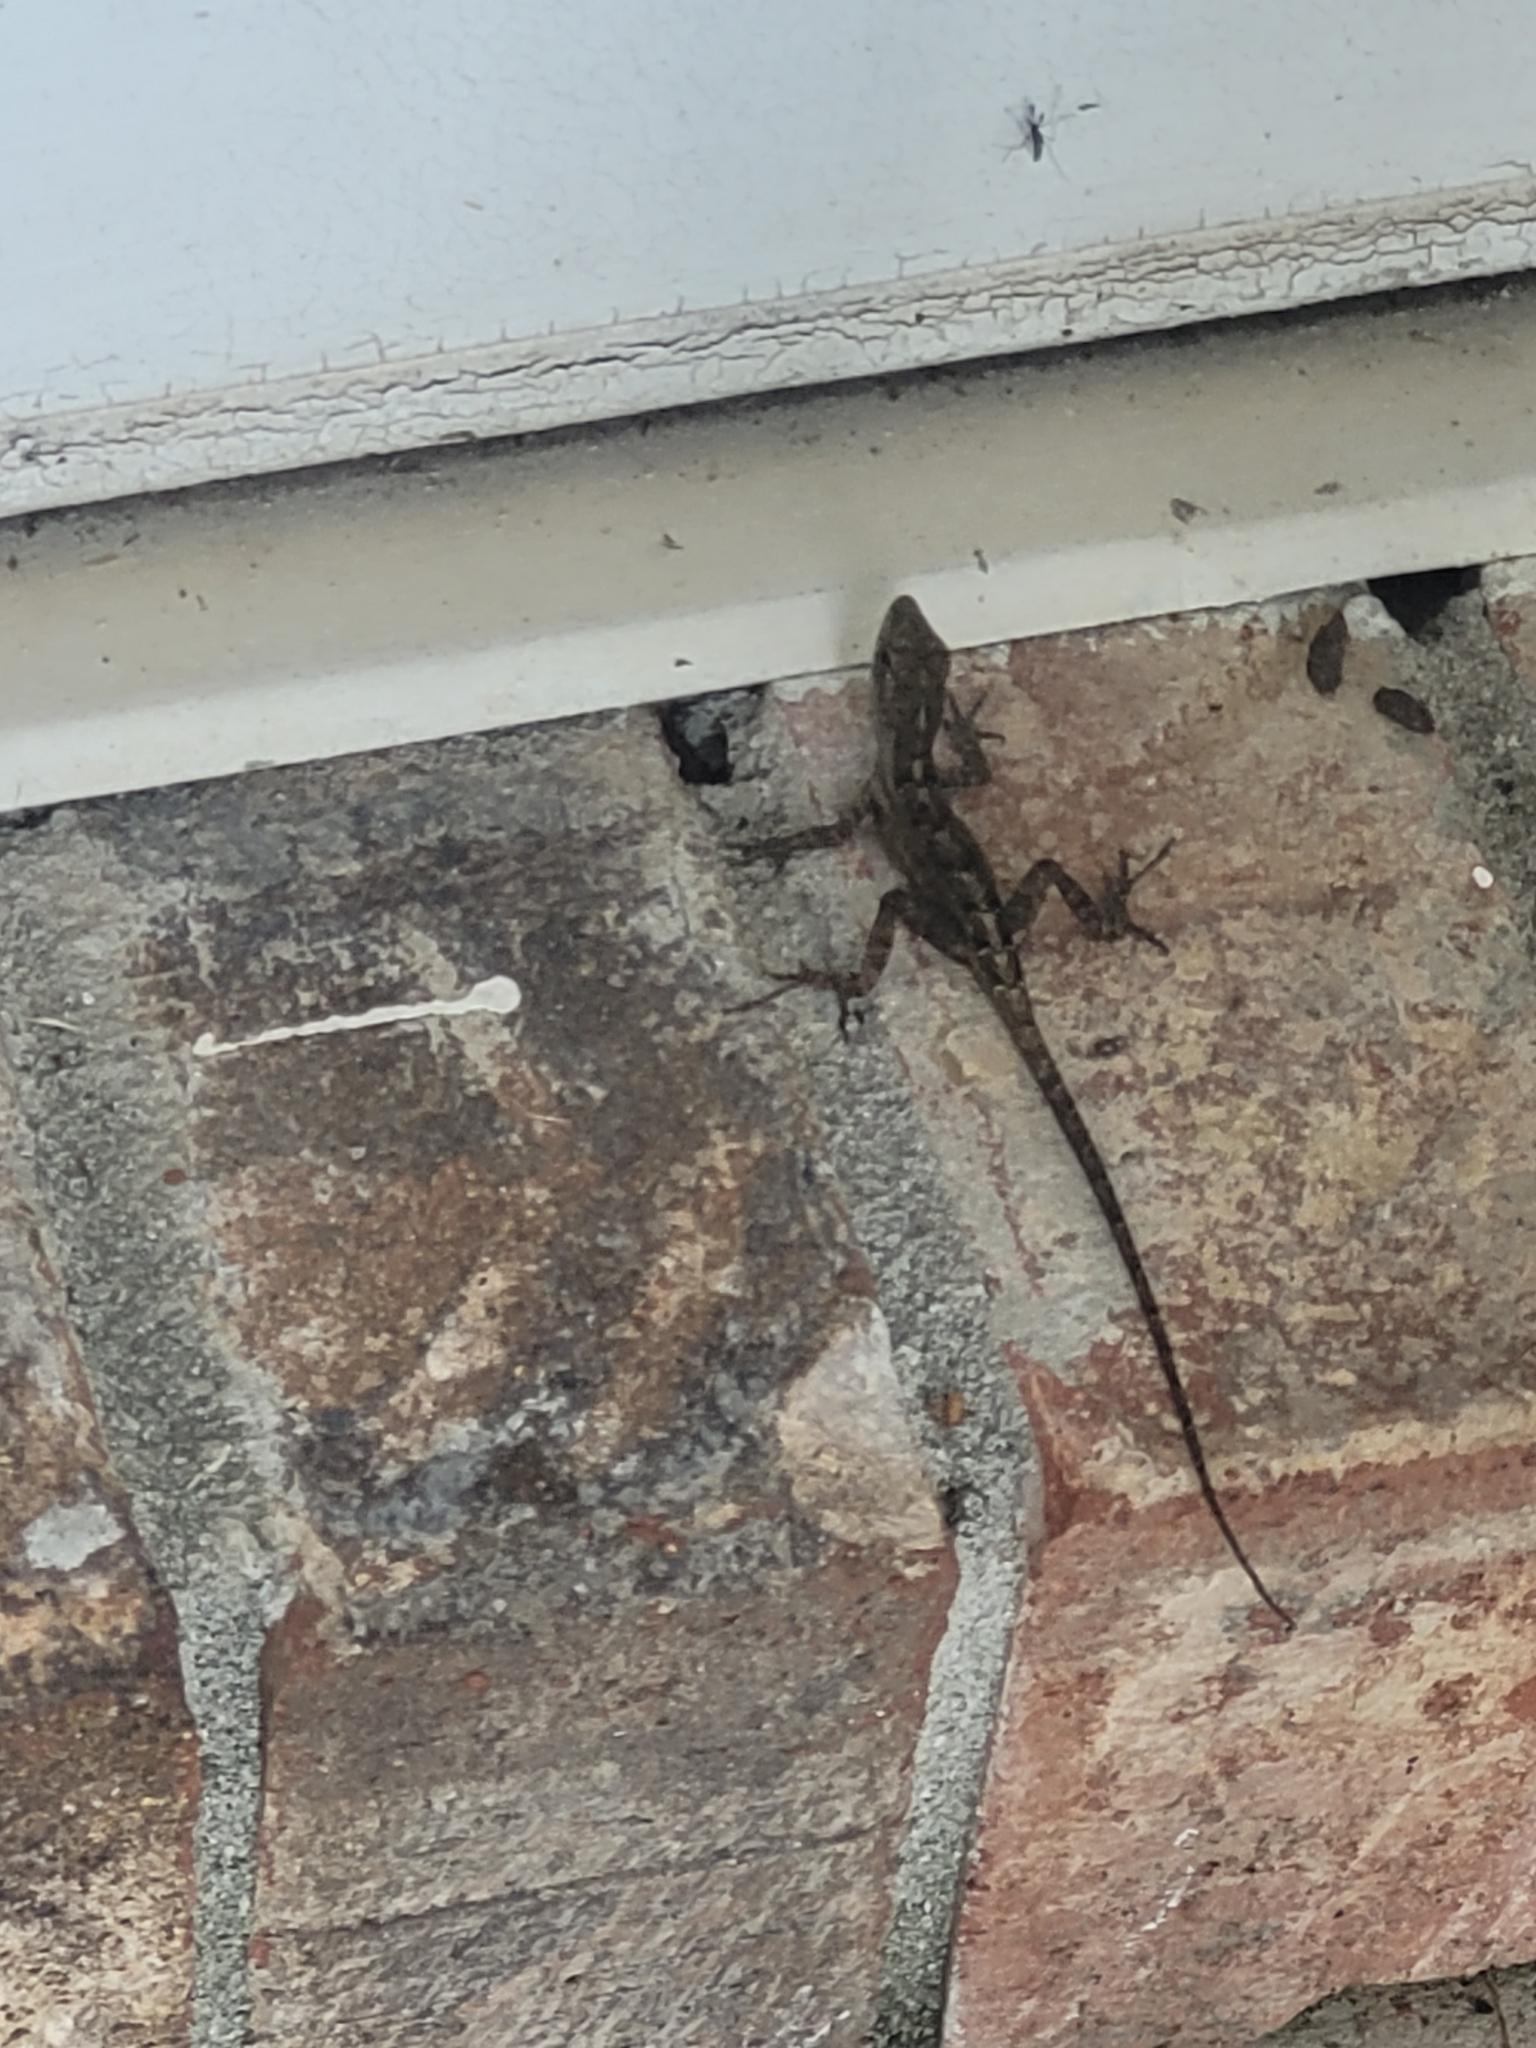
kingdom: Animalia
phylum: Chordata
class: Squamata
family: Dactyloidae
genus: Anolis
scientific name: Anolis sagrei
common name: Brown anole
